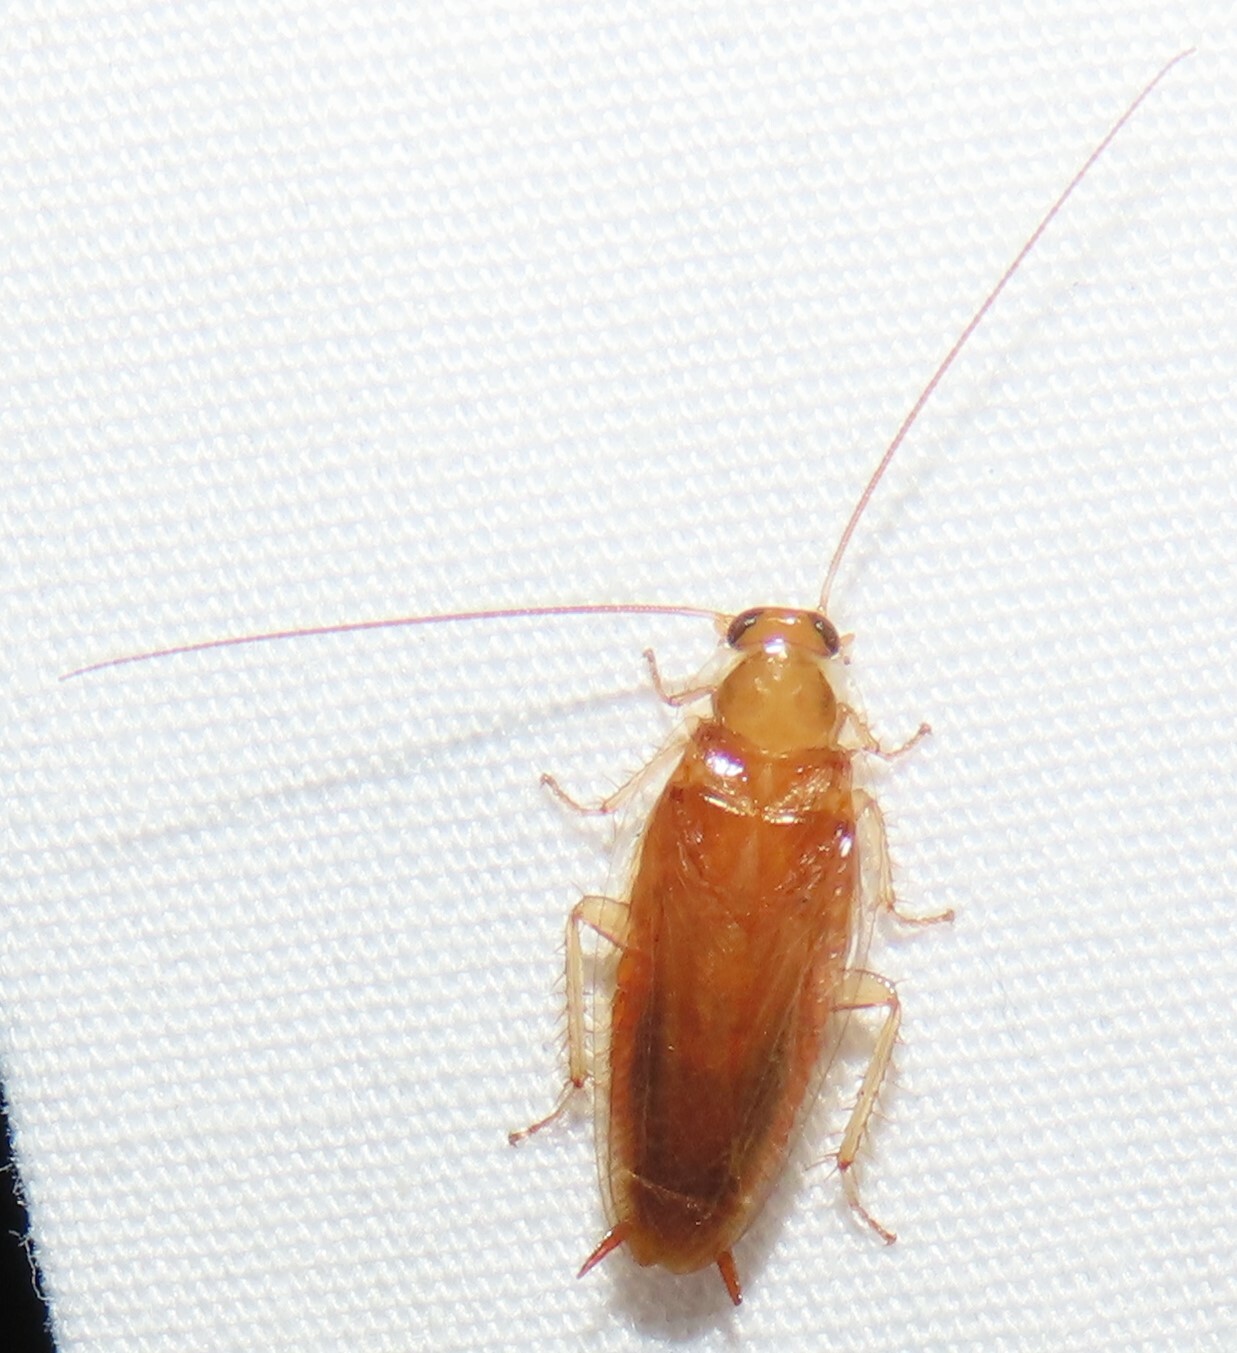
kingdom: Animalia
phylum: Arthropoda
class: Insecta
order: Blattodea
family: Ectobiidae
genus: Chorisoneura
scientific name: Chorisoneura texensis
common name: Small texas cockroach
